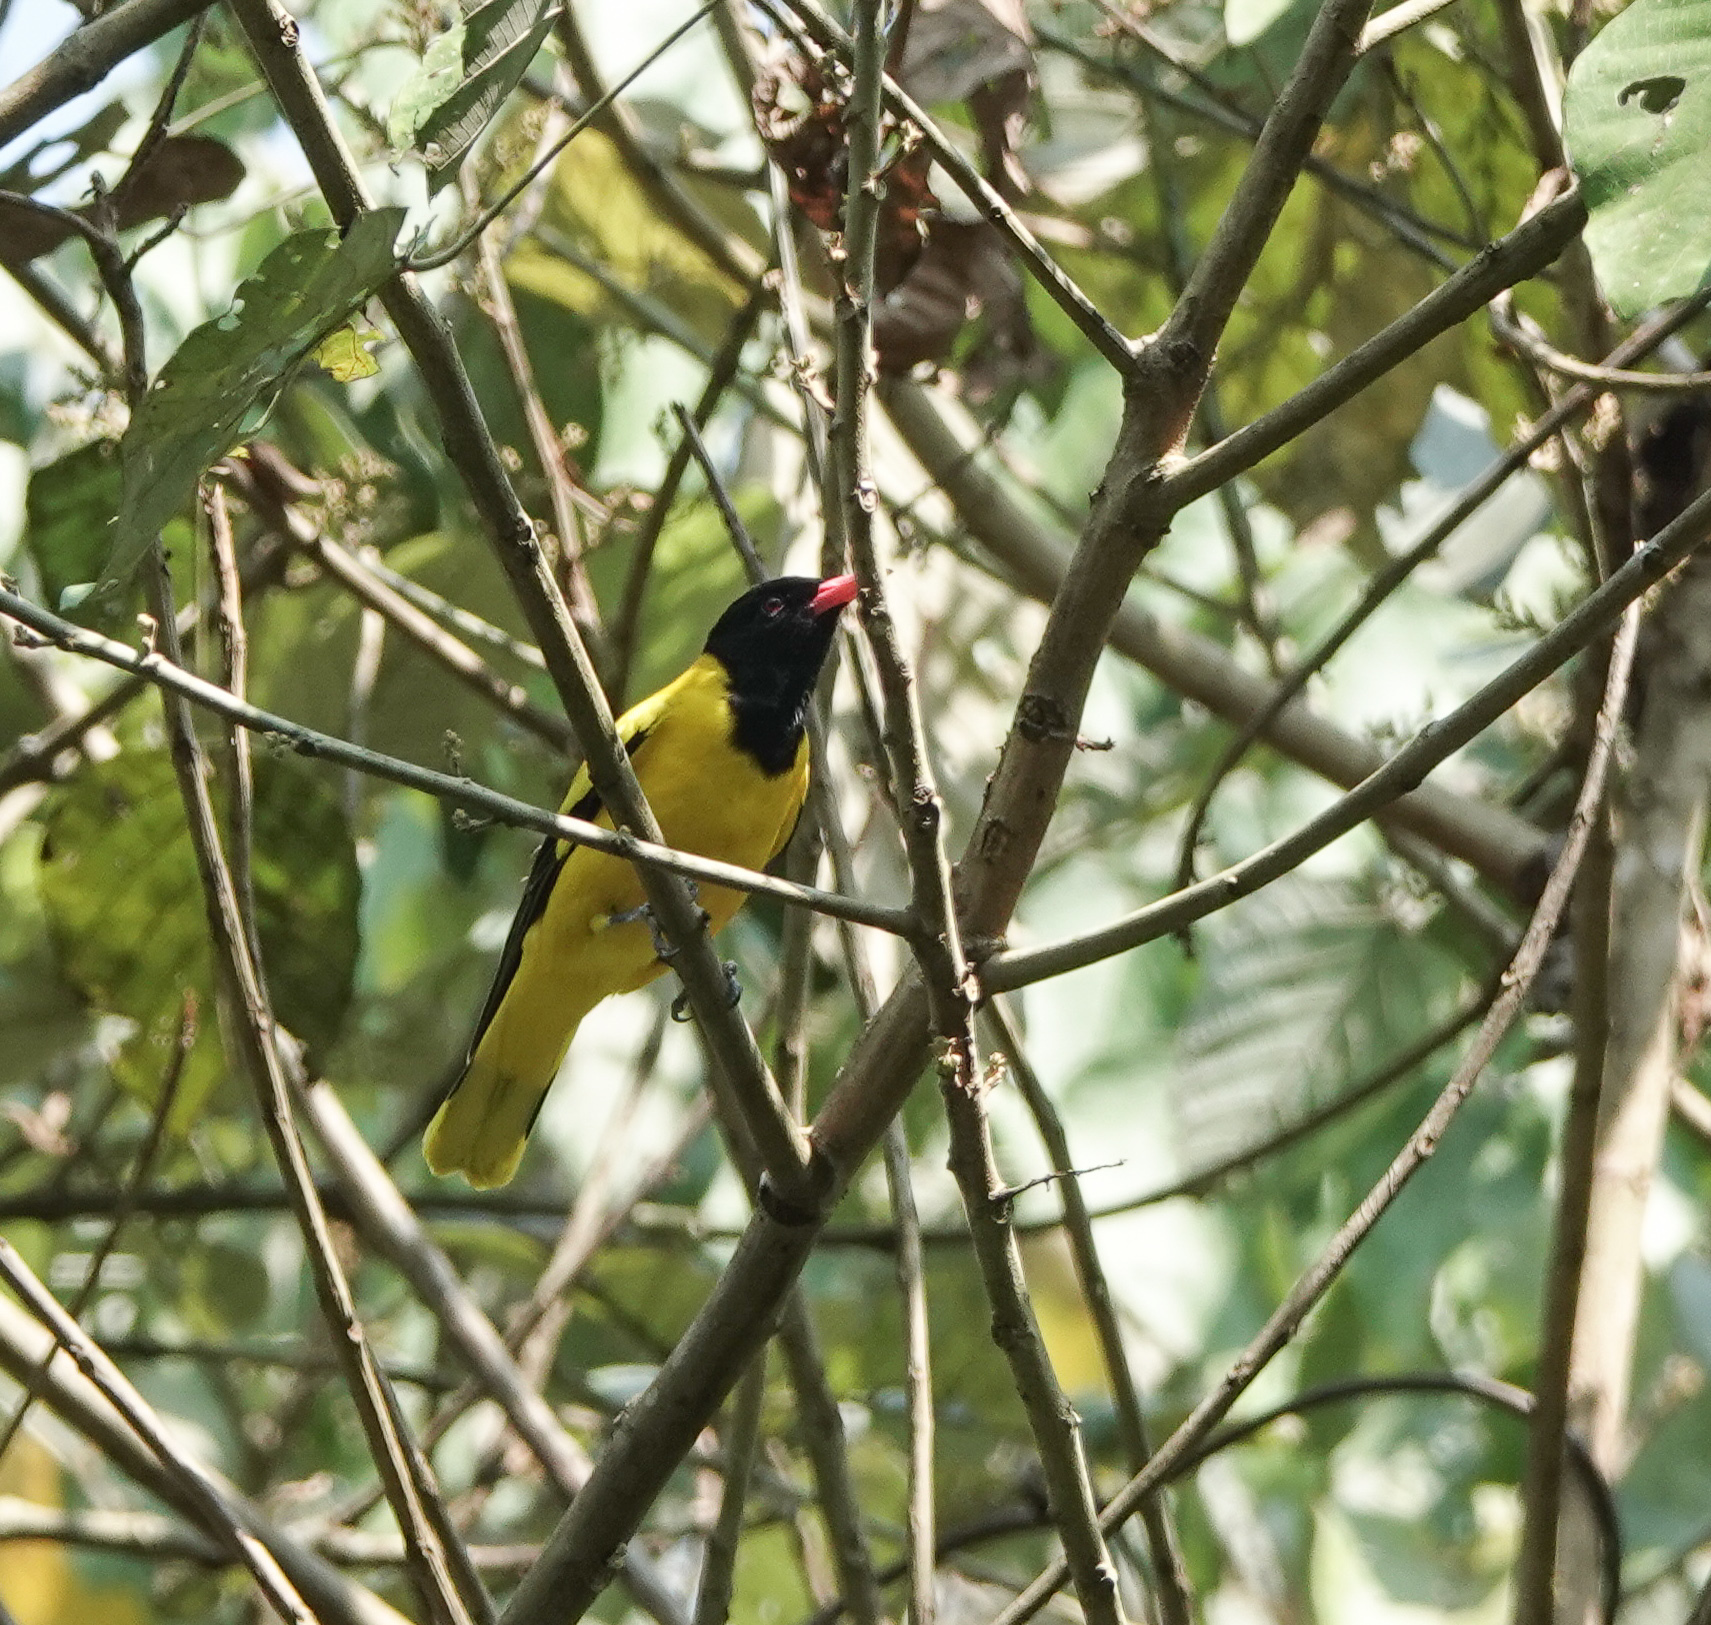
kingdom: Animalia
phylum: Chordata
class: Aves
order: Passeriformes
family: Oriolidae
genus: Oriolus
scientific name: Oriolus xanthornus
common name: Black-hooded oriole
